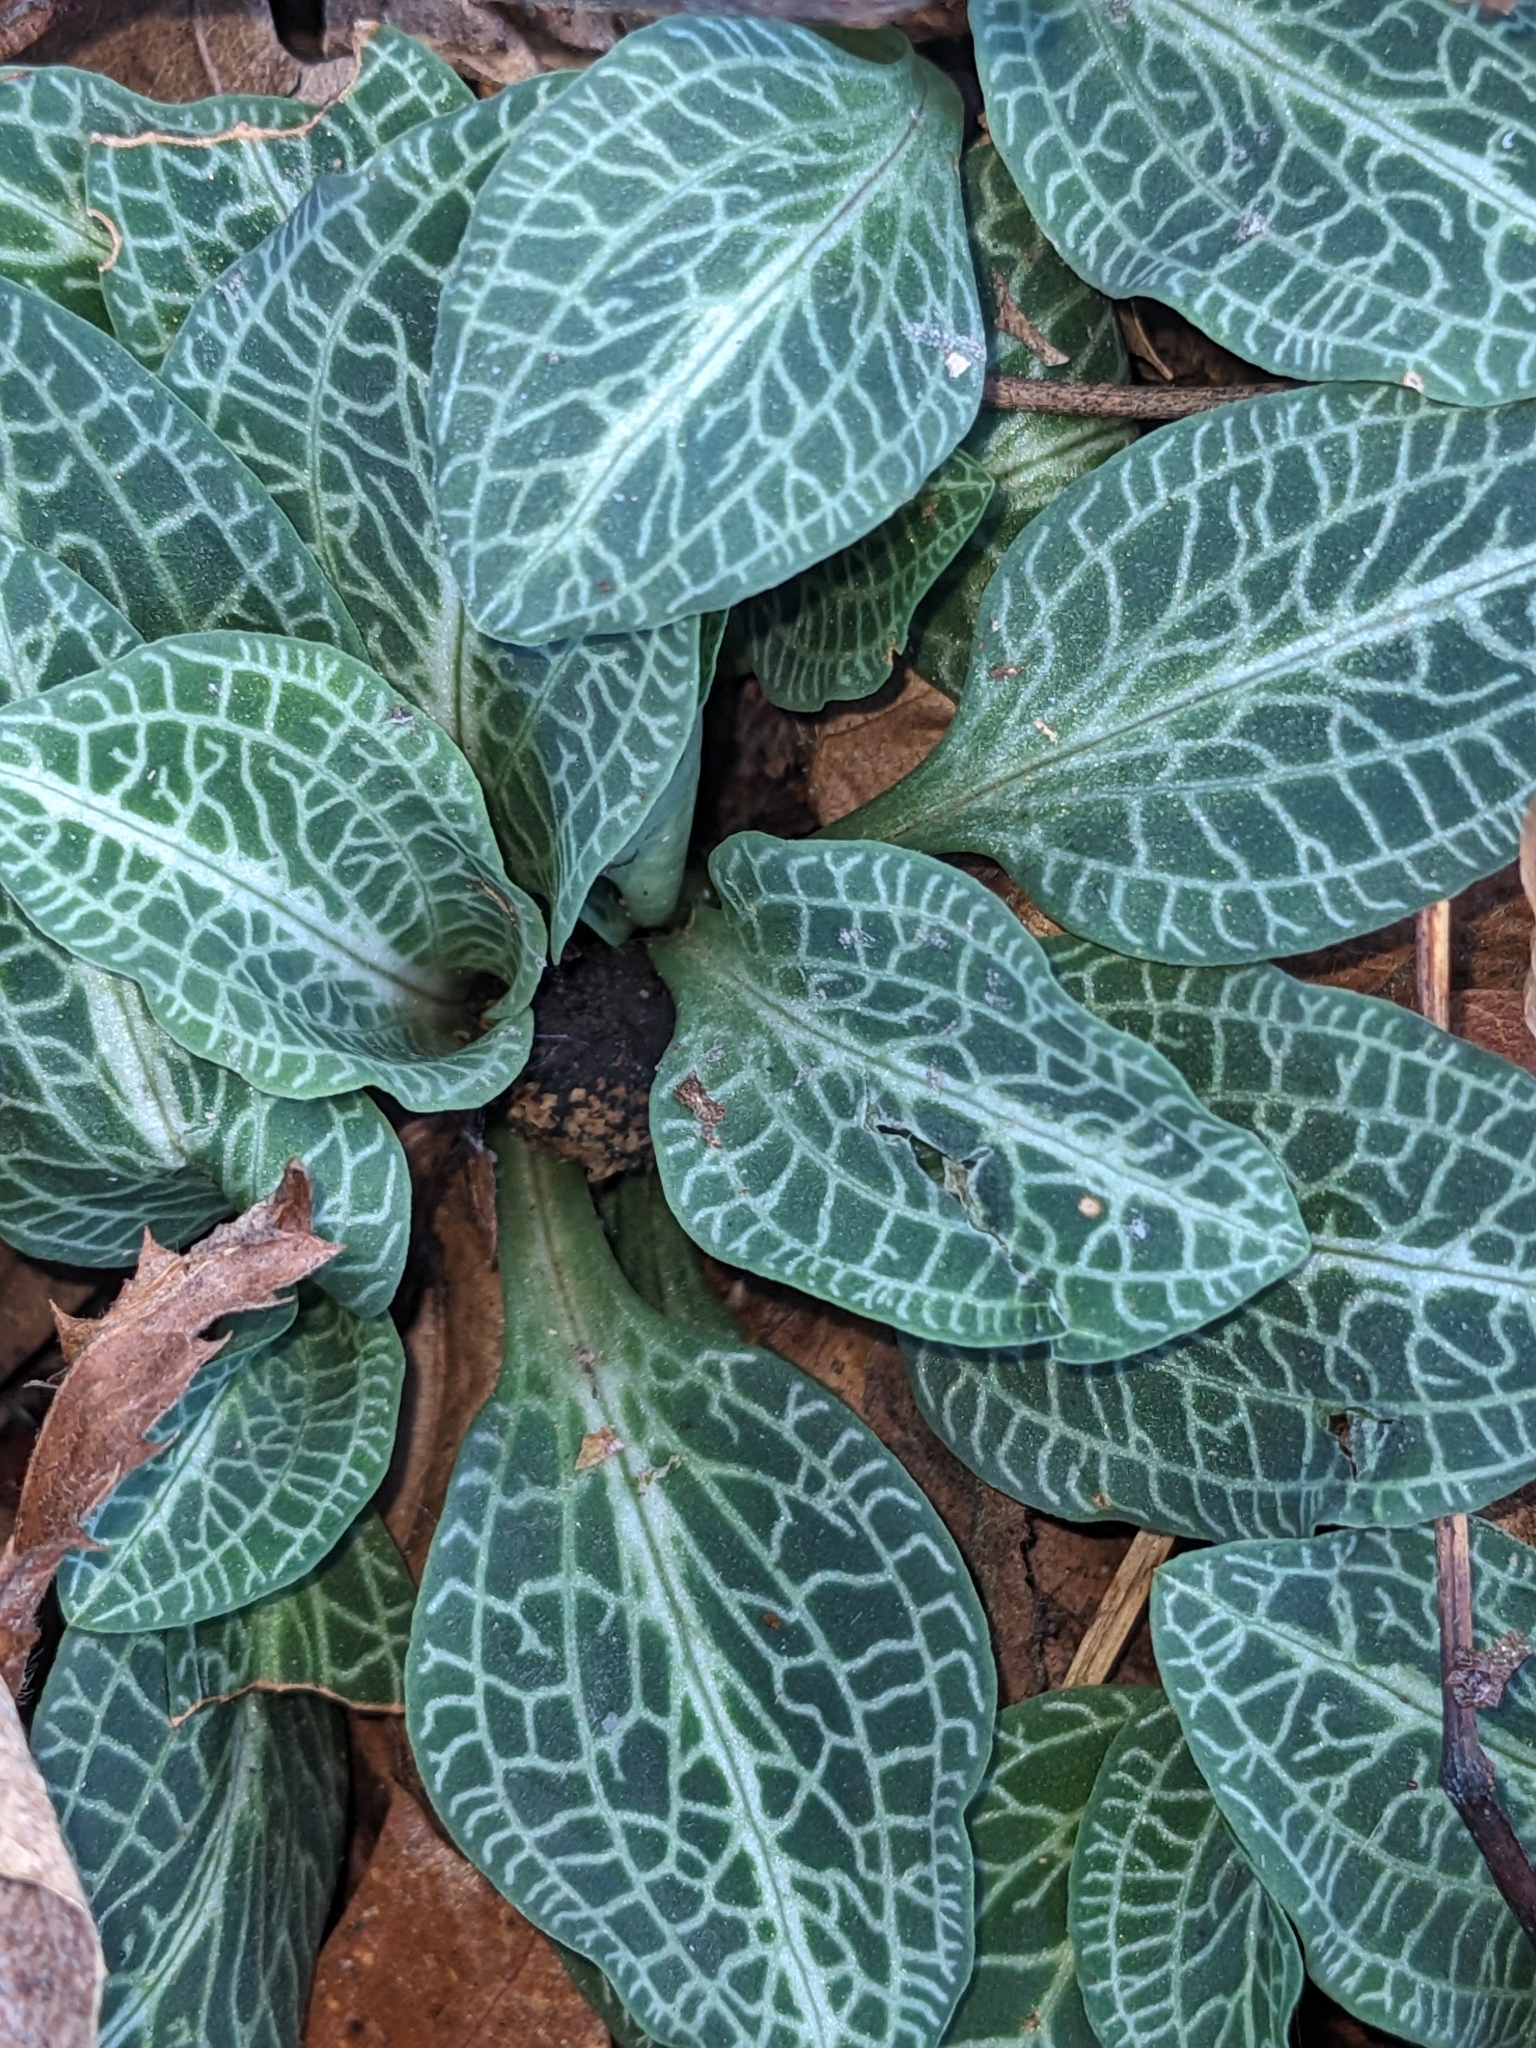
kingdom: Plantae
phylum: Tracheophyta
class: Liliopsida
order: Asparagales
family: Orchidaceae
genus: Goodyera
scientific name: Goodyera pubescens
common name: Downy rattlesnake-plantain
